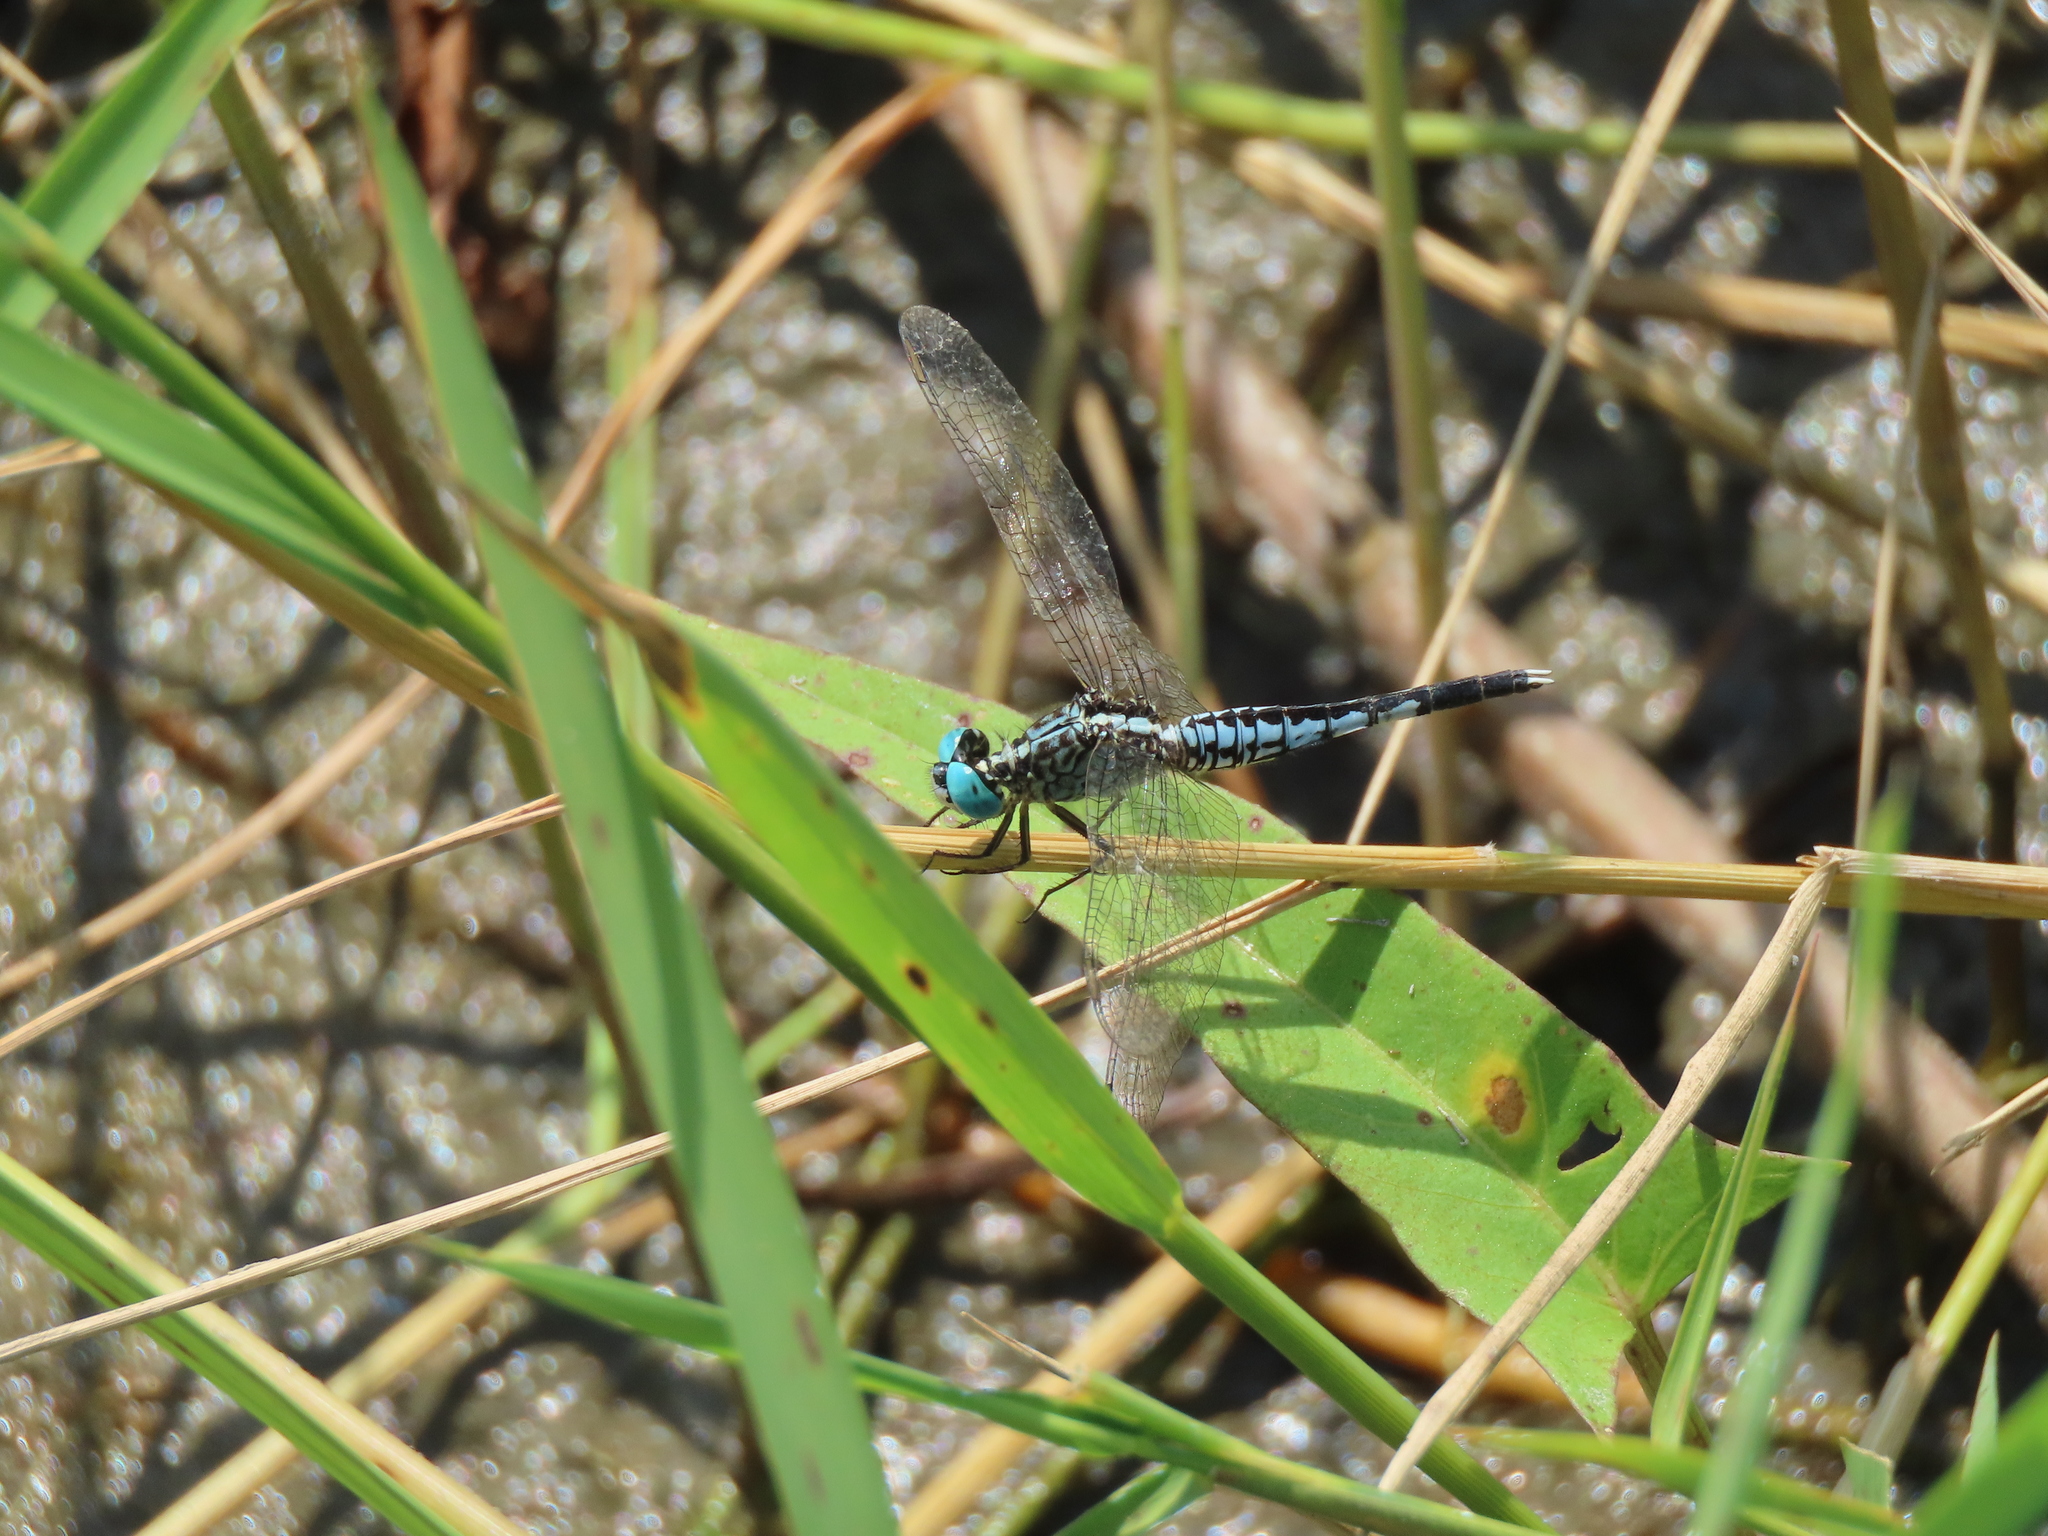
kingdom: Animalia
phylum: Arthropoda
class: Insecta
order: Odonata
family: Libellulidae
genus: Acisoma
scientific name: Acisoma panorpoides
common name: Asian pintail
